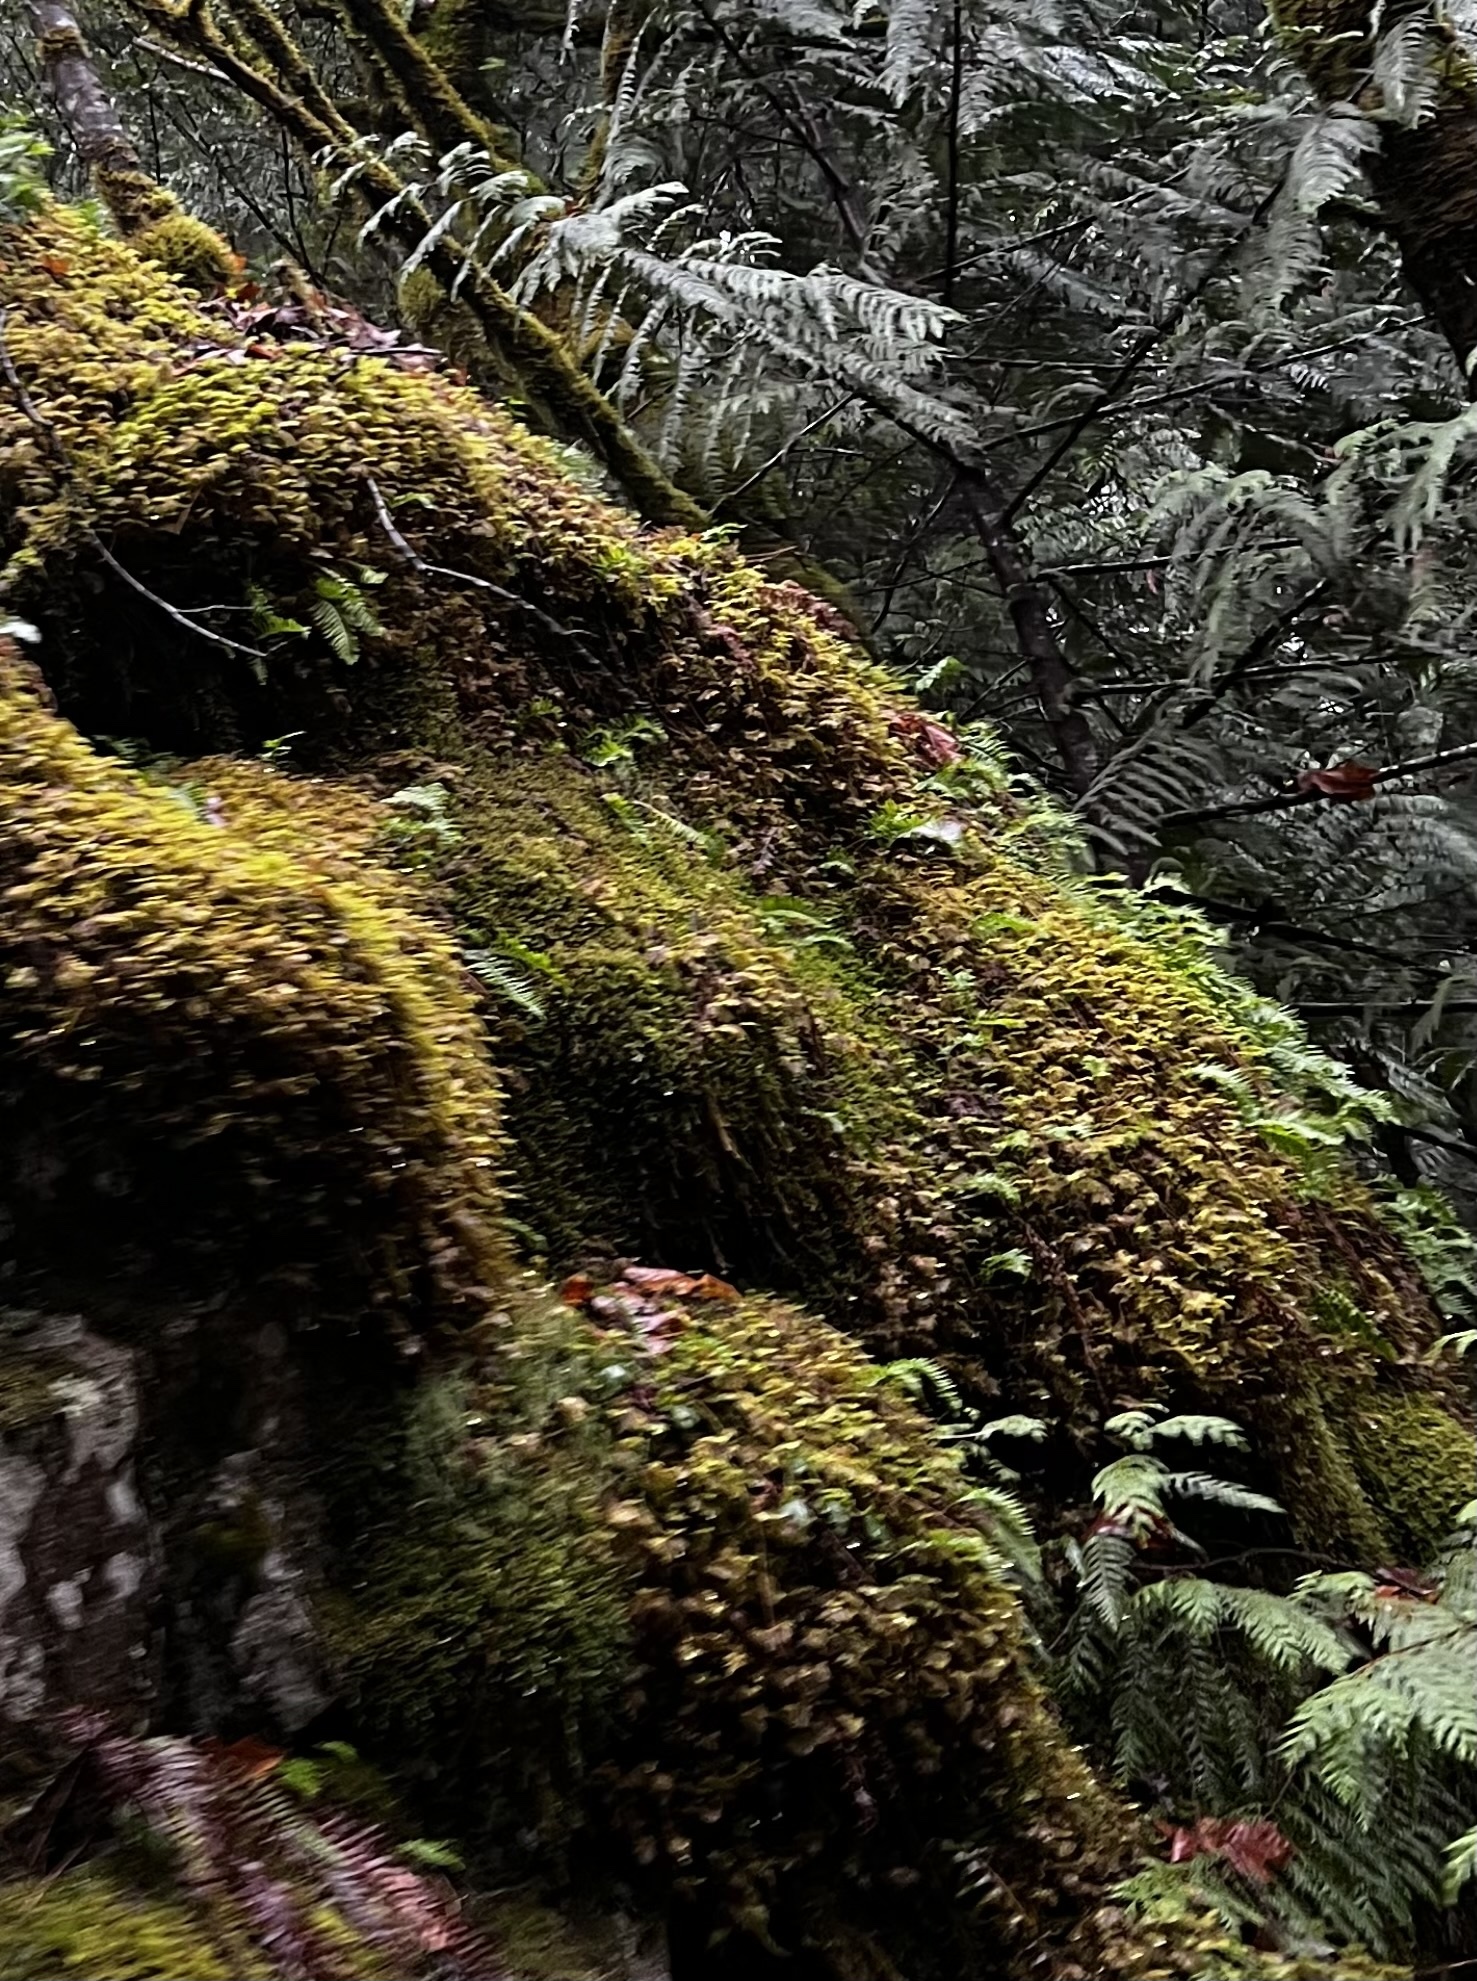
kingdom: Plantae
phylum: Tracheophyta
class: Polypodiopsida
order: Polypodiales
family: Polypodiaceae
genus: Polypodium
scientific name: Polypodium glycyrrhiza
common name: Licorice fern
